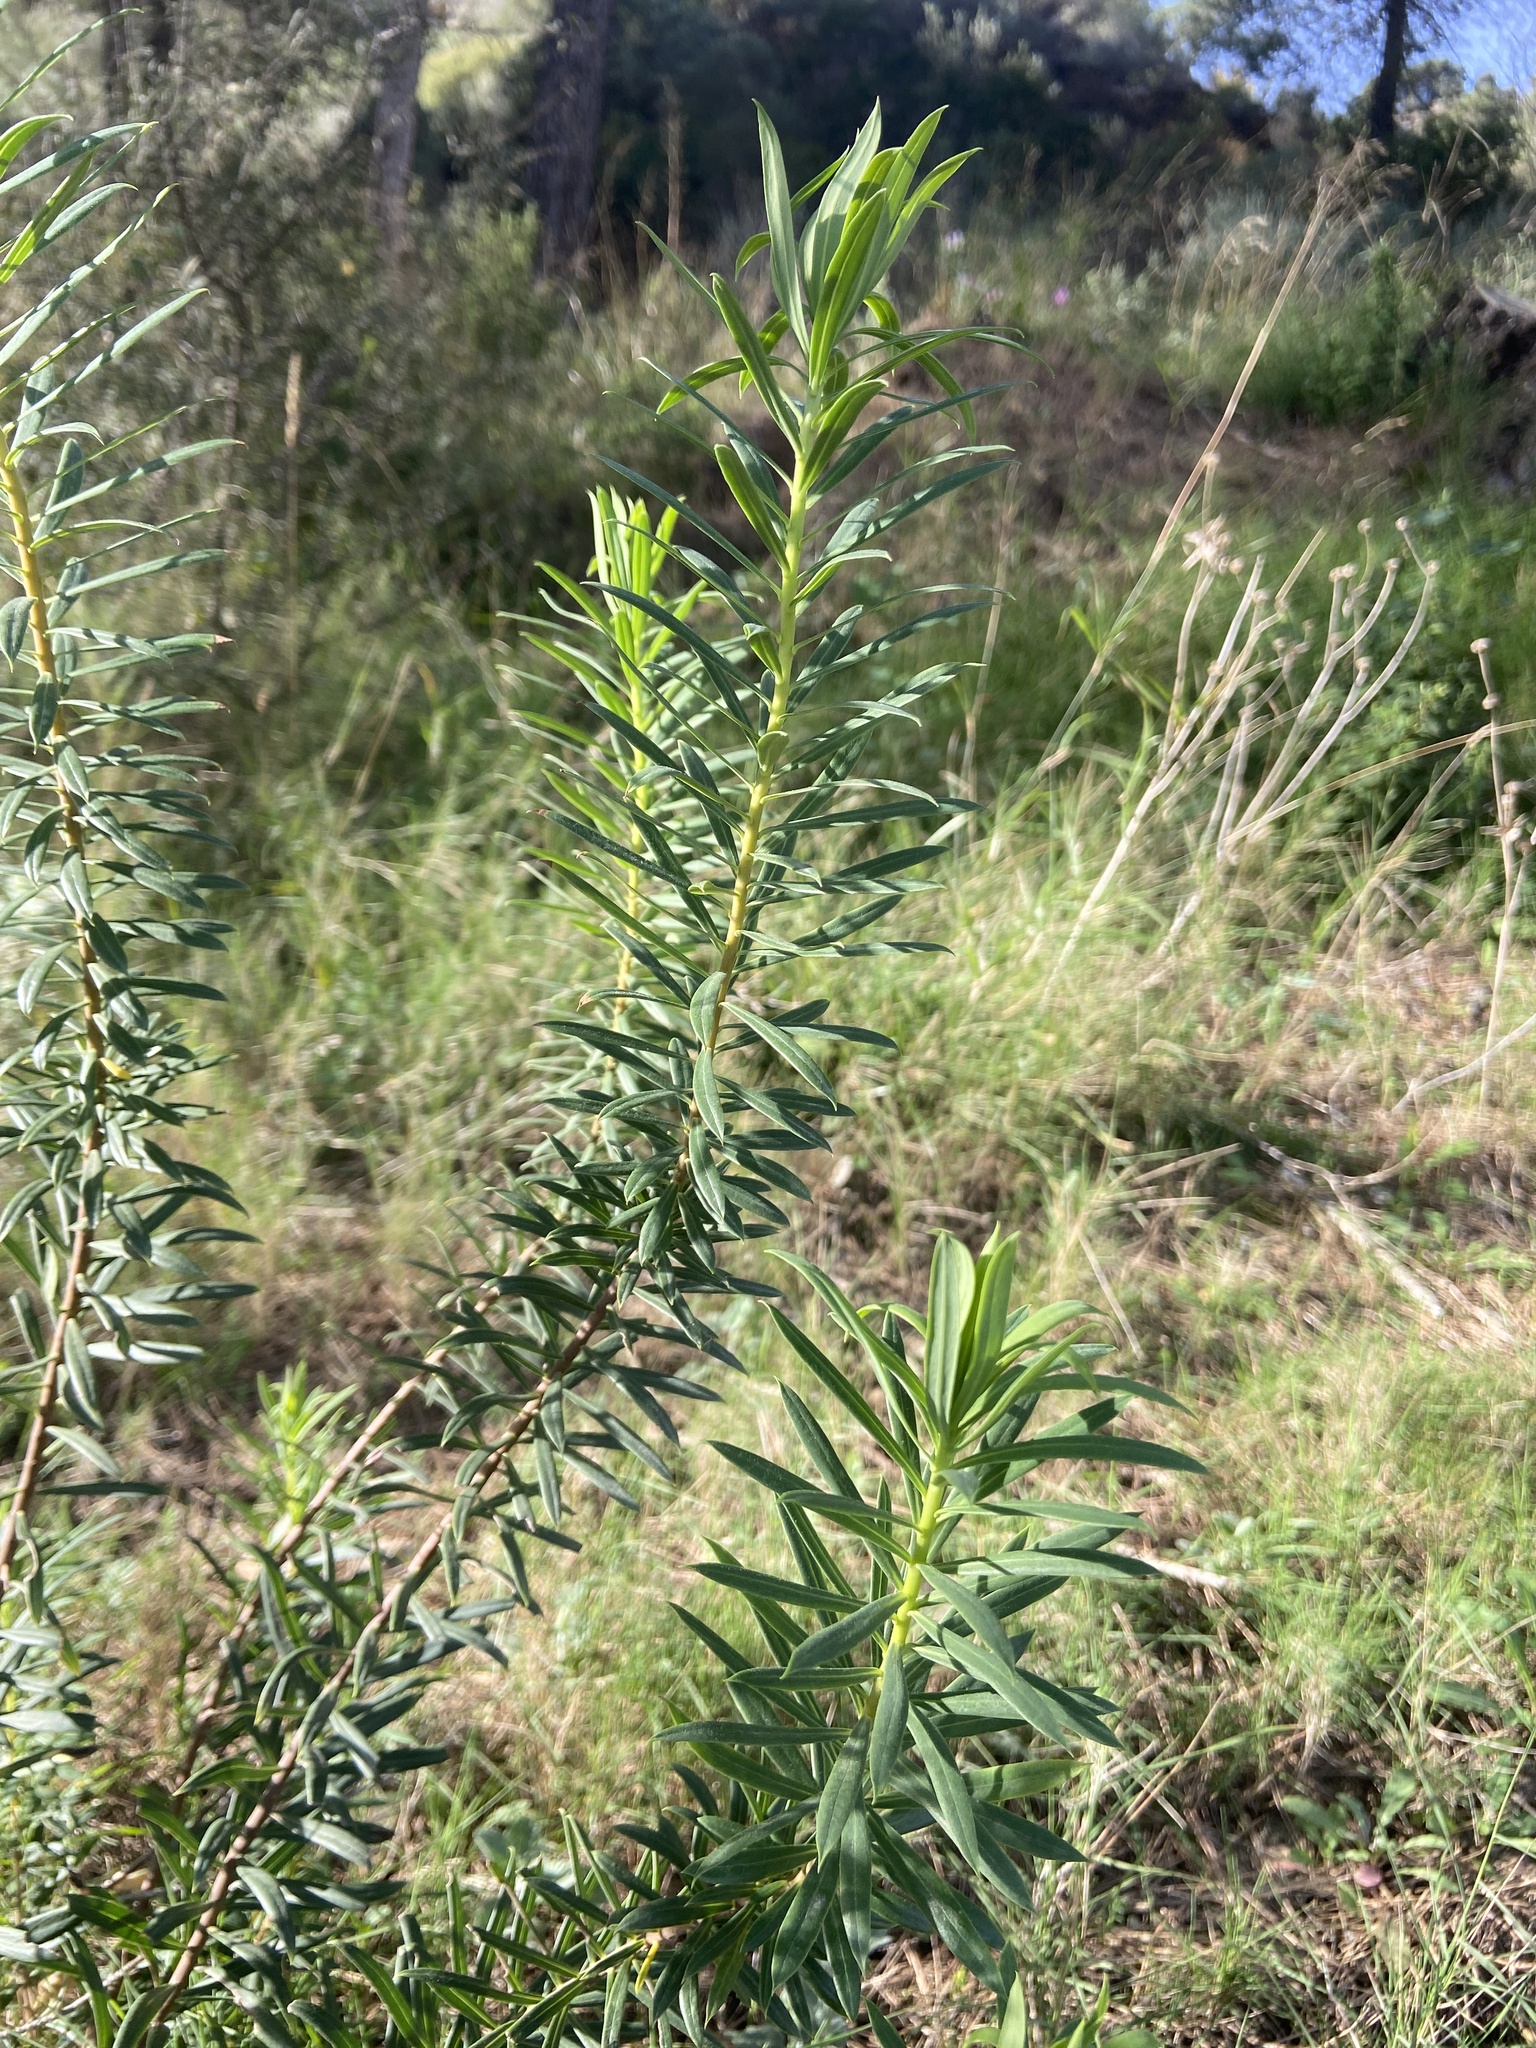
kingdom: Plantae
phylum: Tracheophyta
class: Magnoliopsida
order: Malvales
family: Thymelaeaceae
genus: Daphne
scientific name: Daphne gnidium
